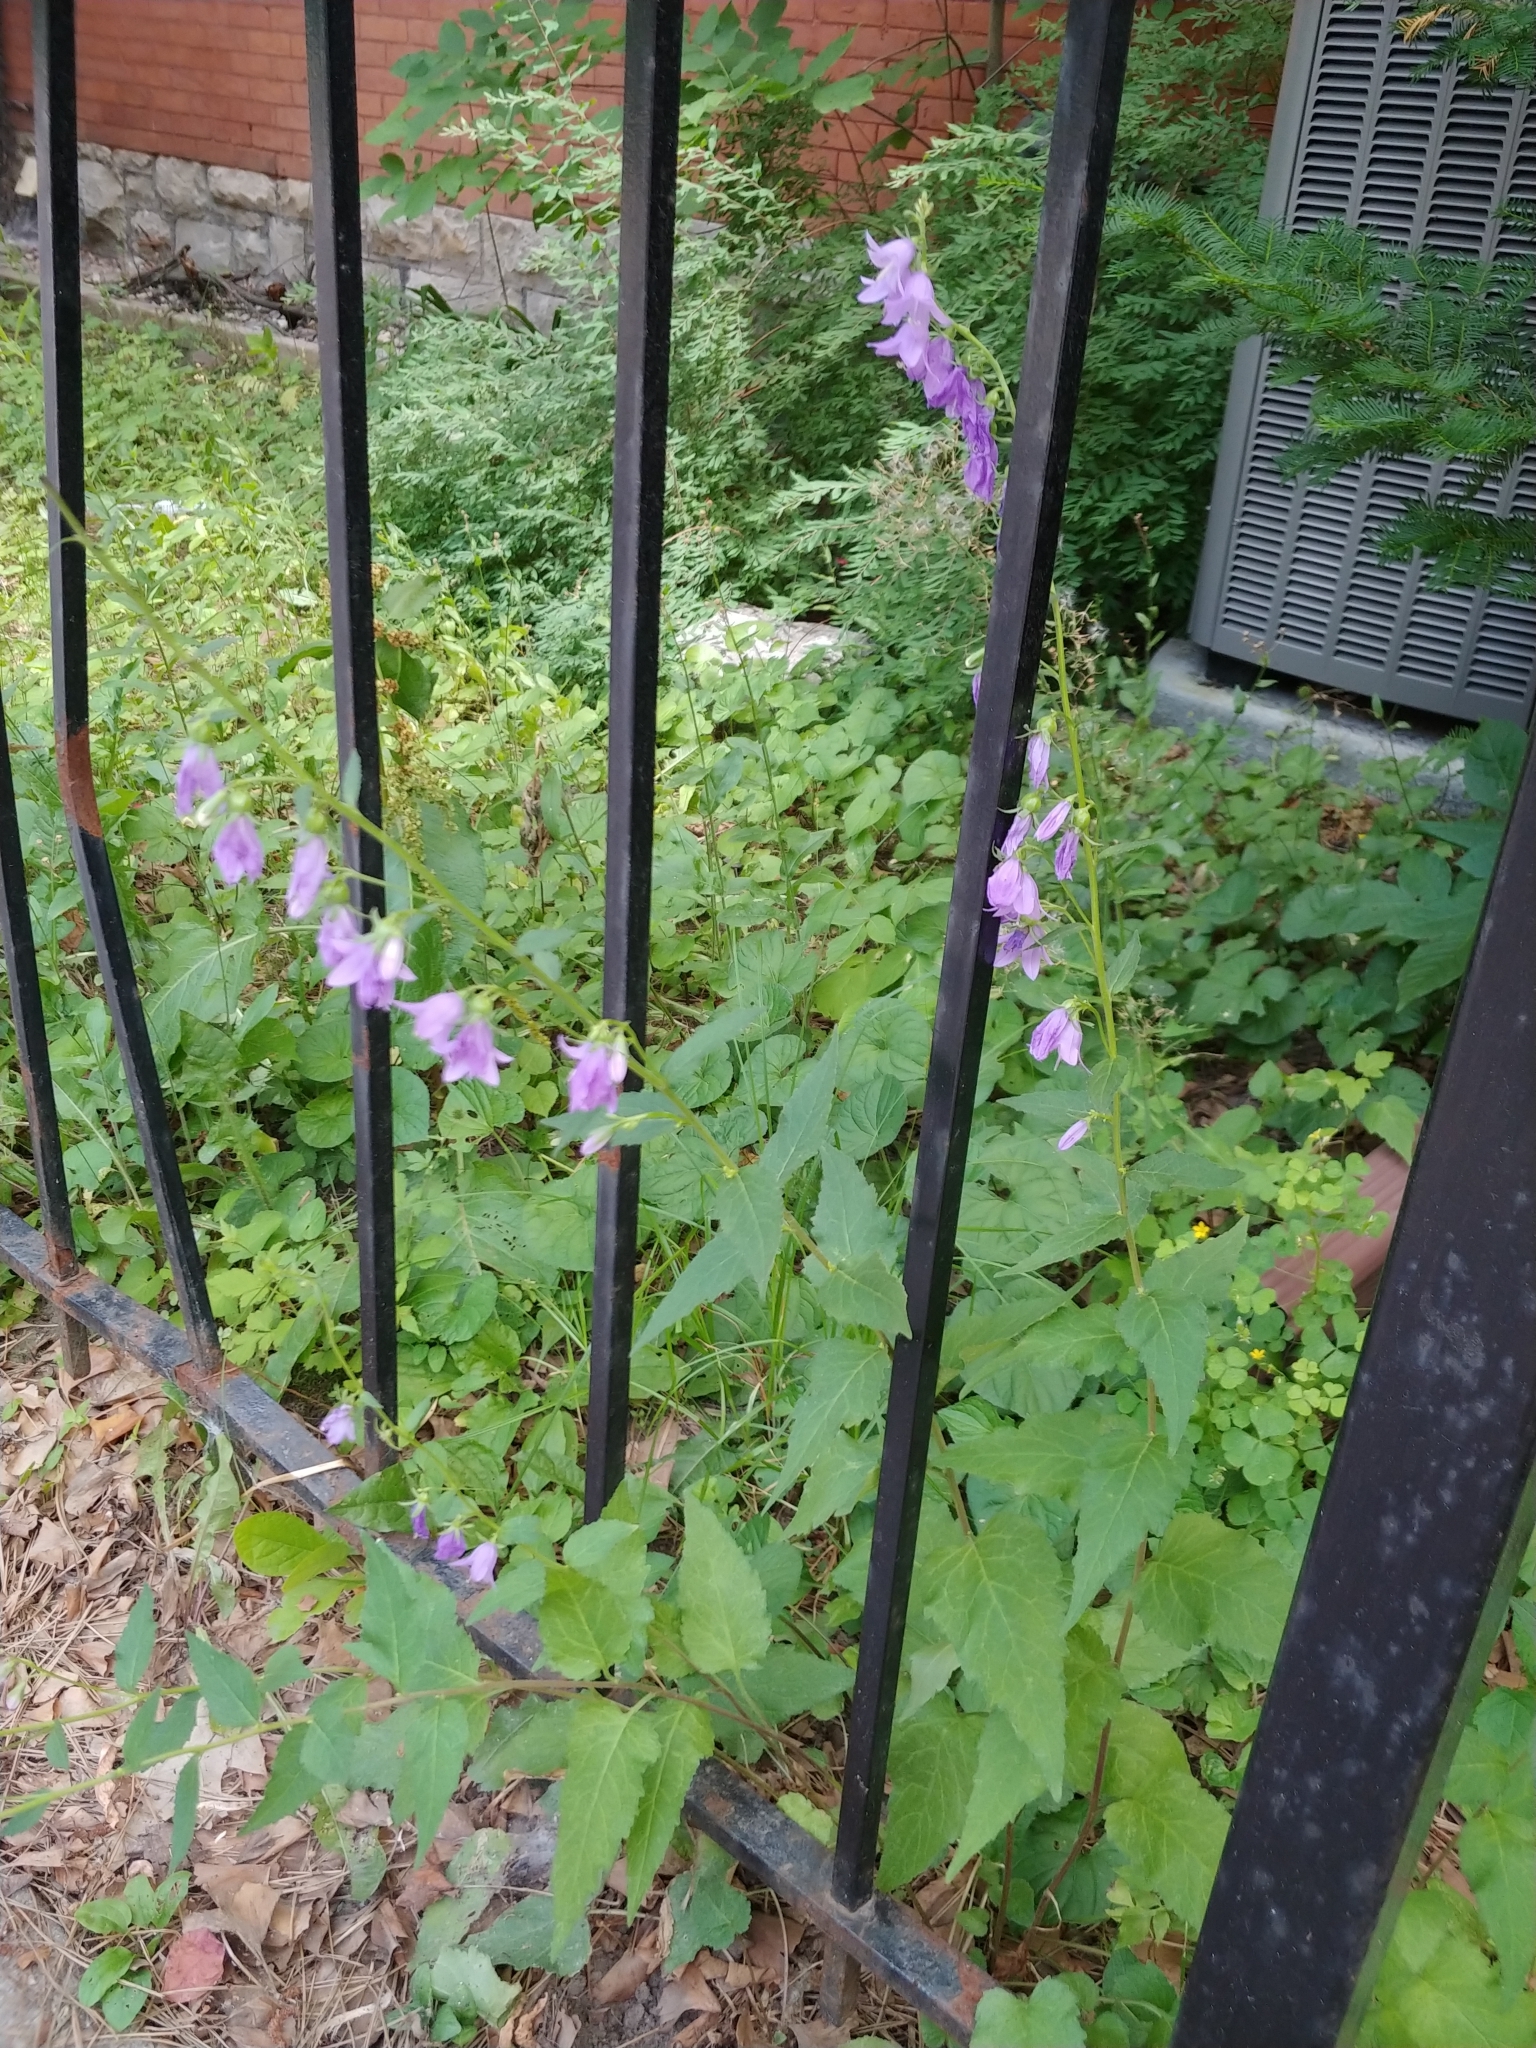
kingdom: Plantae
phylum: Tracheophyta
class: Magnoliopsida
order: Asterales
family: Campanulaceae
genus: Campanula
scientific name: Campanula rapunculoides
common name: Creeping bellflower
